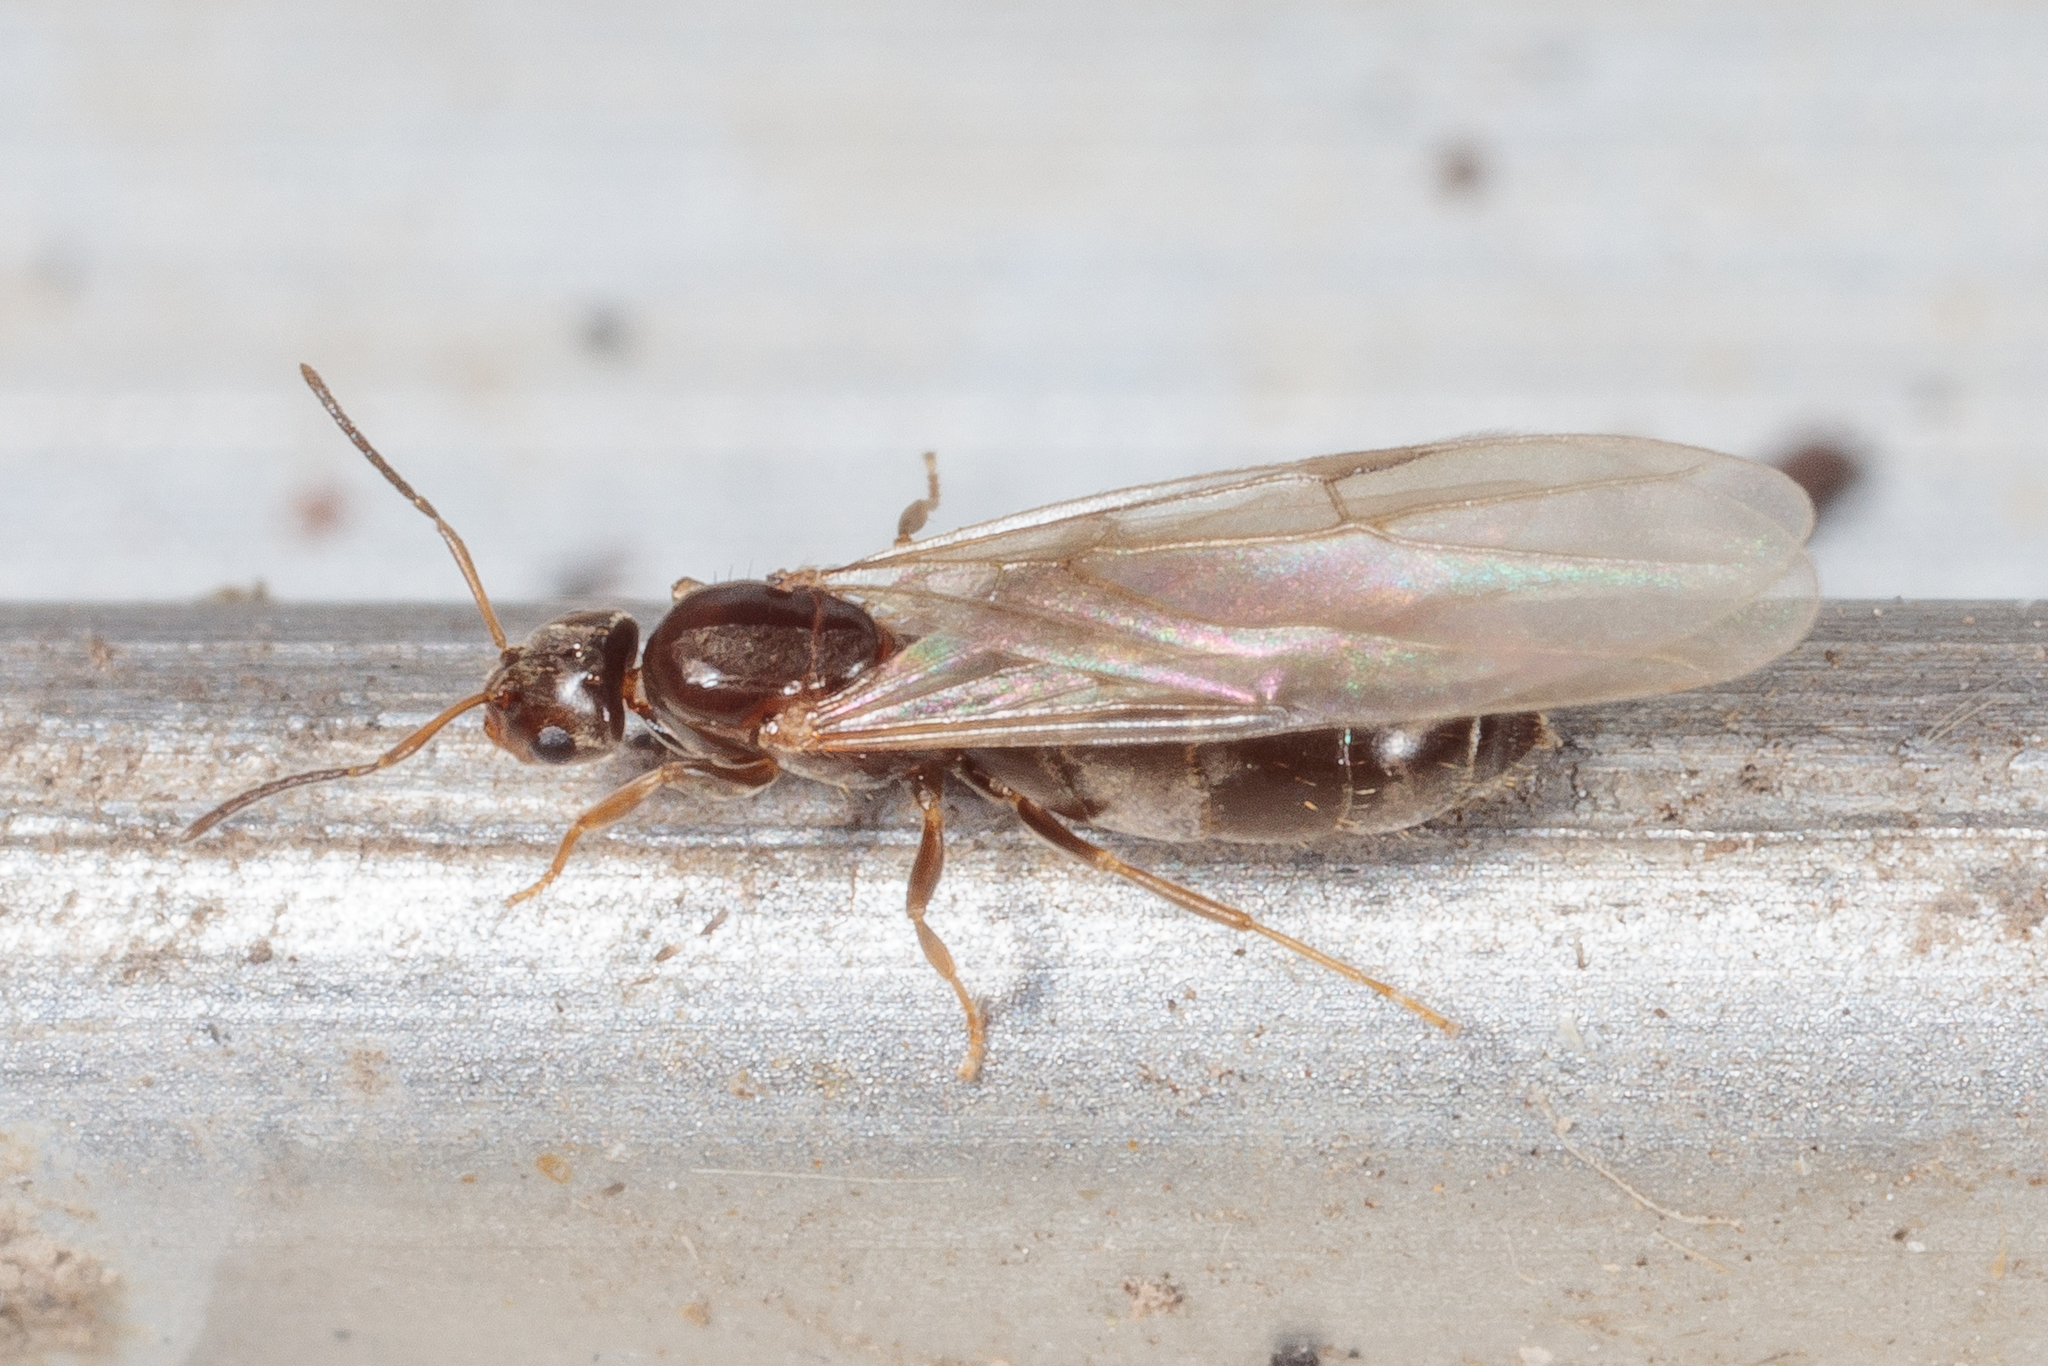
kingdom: Animalia
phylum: Arthropoda
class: Insecta
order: Hymenoptera
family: Formicidae
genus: Brachymyrmex
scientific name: Brachymyrmex patagonicus
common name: Dark rover ant
